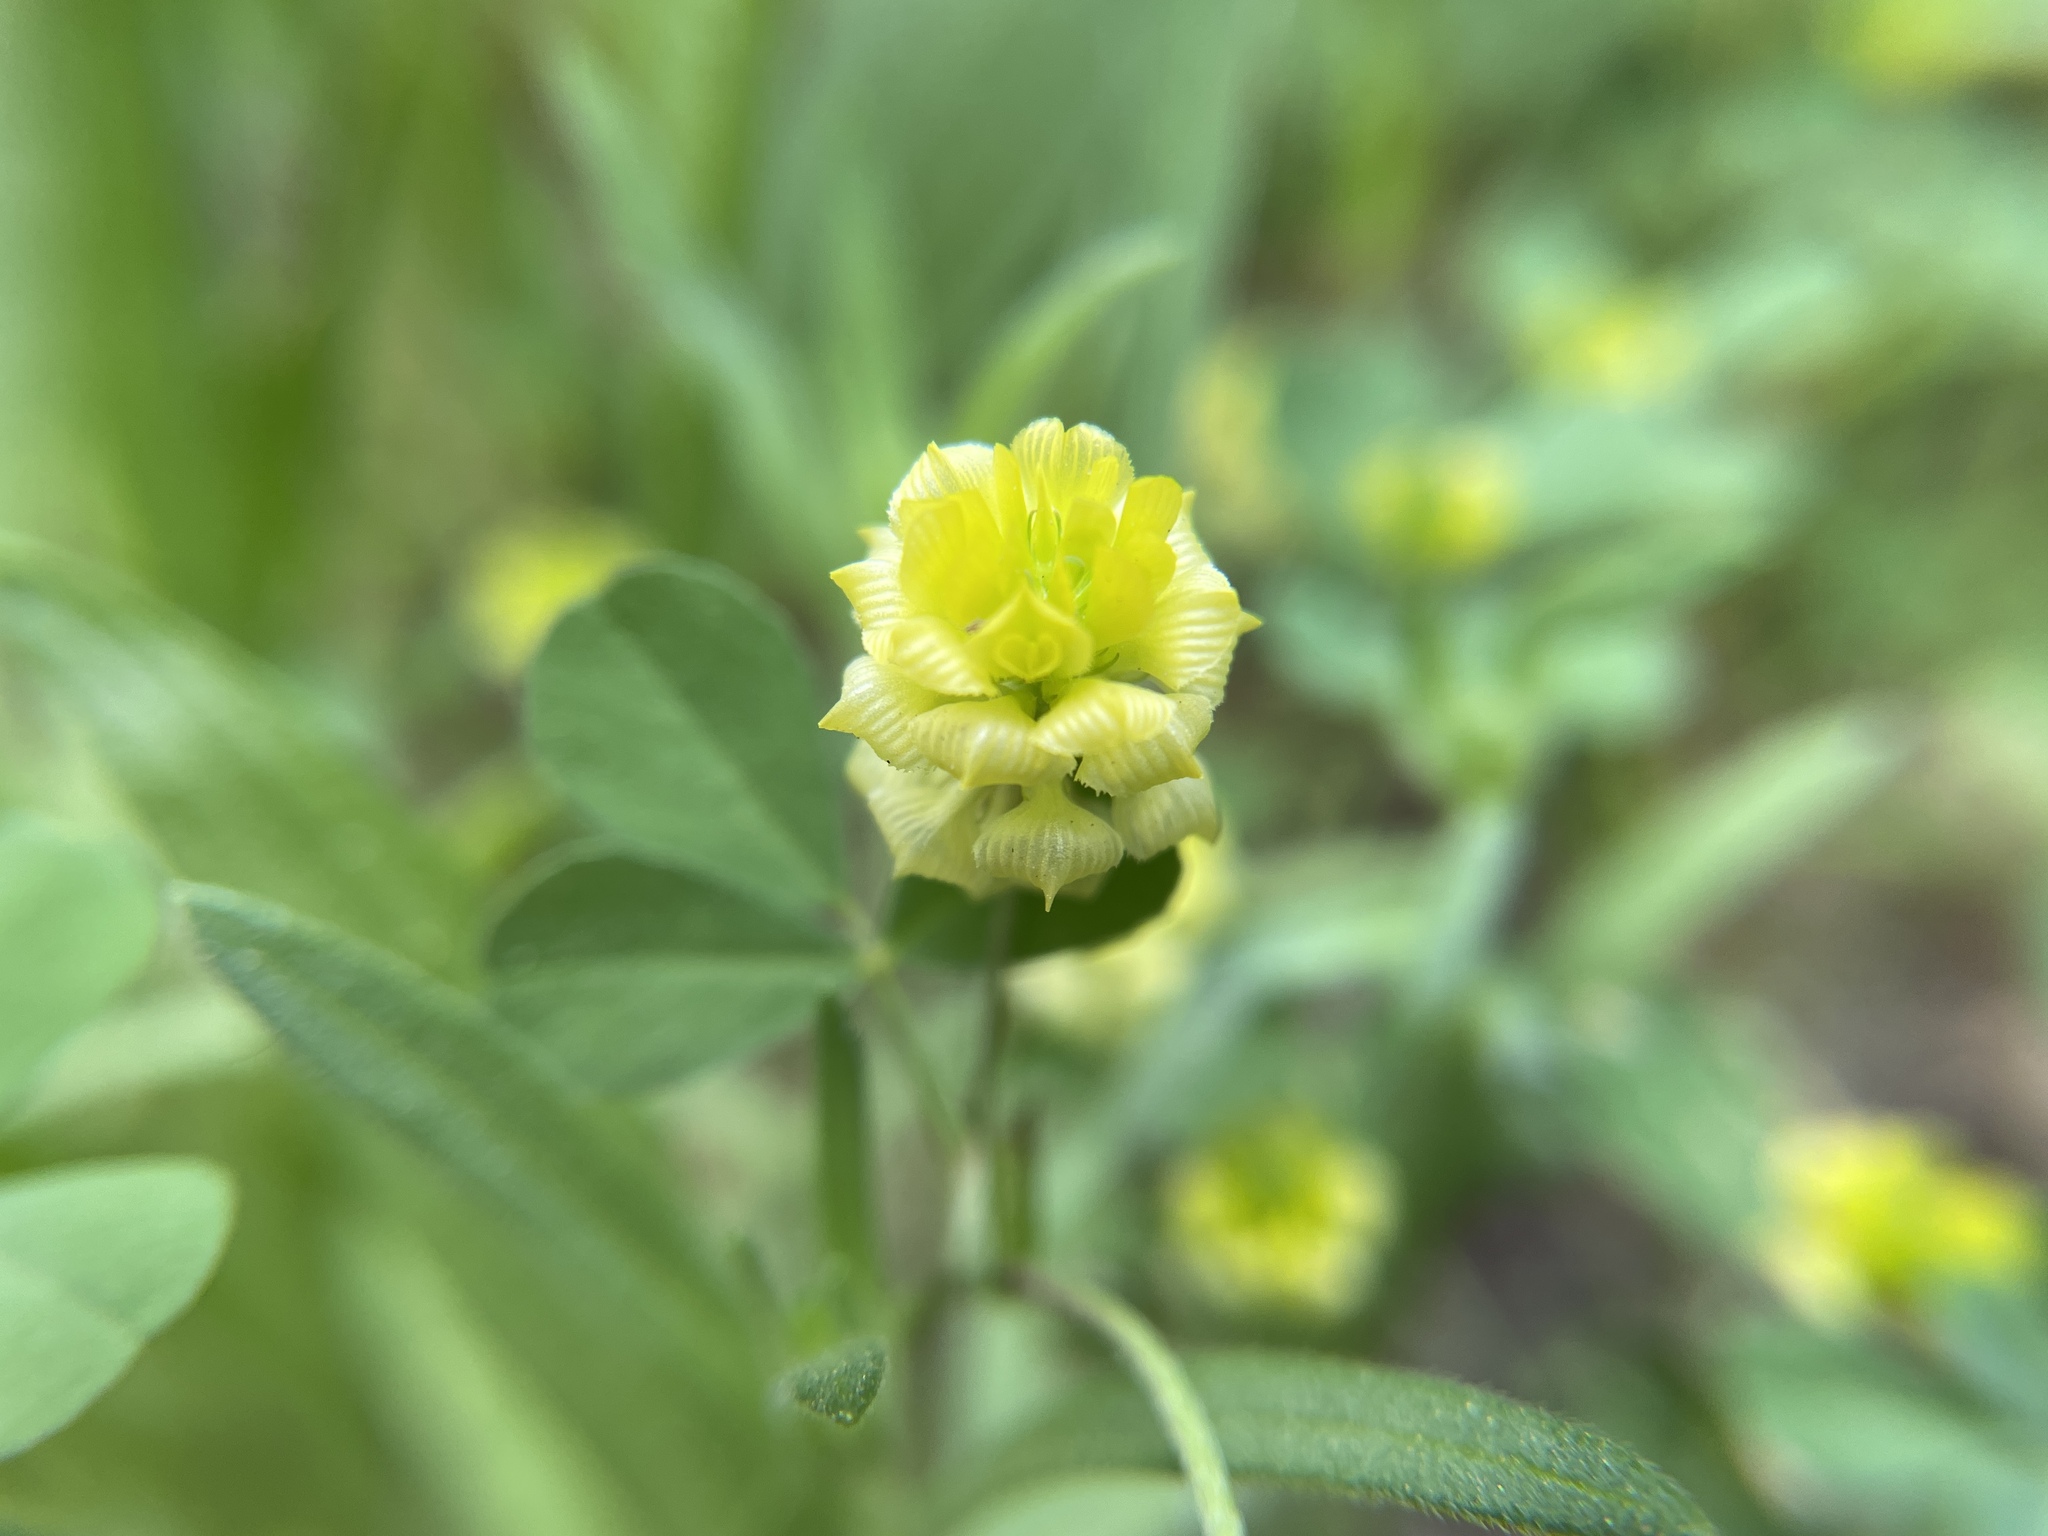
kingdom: Plantae
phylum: Tracheophyta
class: Magnoliopsida
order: Fabales
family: Fabaceae
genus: Trifolium
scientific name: Trifolium campestre
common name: Field clover
